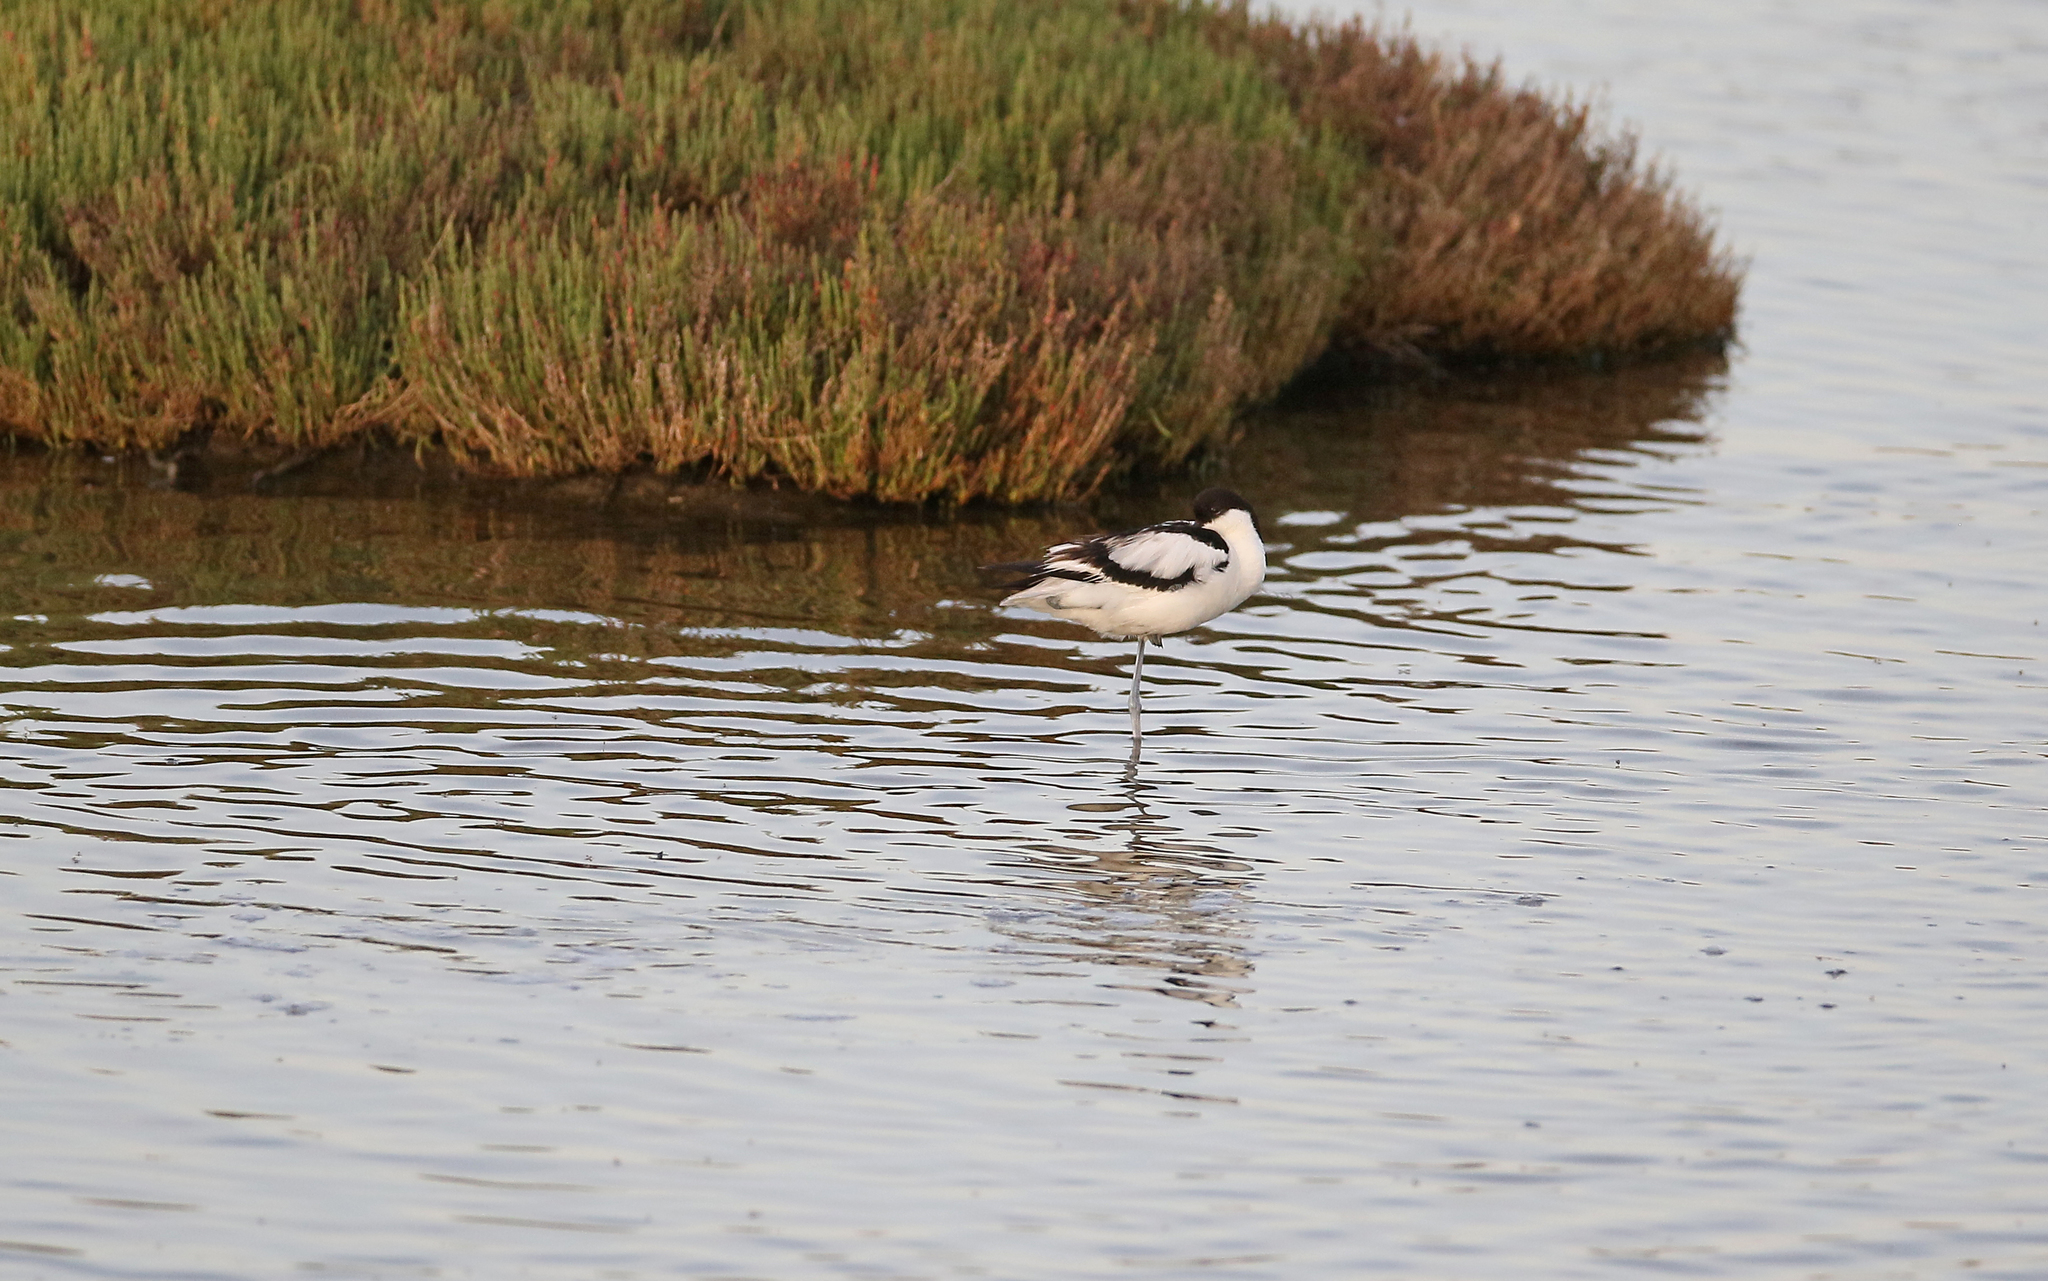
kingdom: Animalia
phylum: Chordata
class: Aves
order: Charadriiformes
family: Recurvirostridae
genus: Recurvirostra
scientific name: Recurvirostra avosetta
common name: Pied avocet
